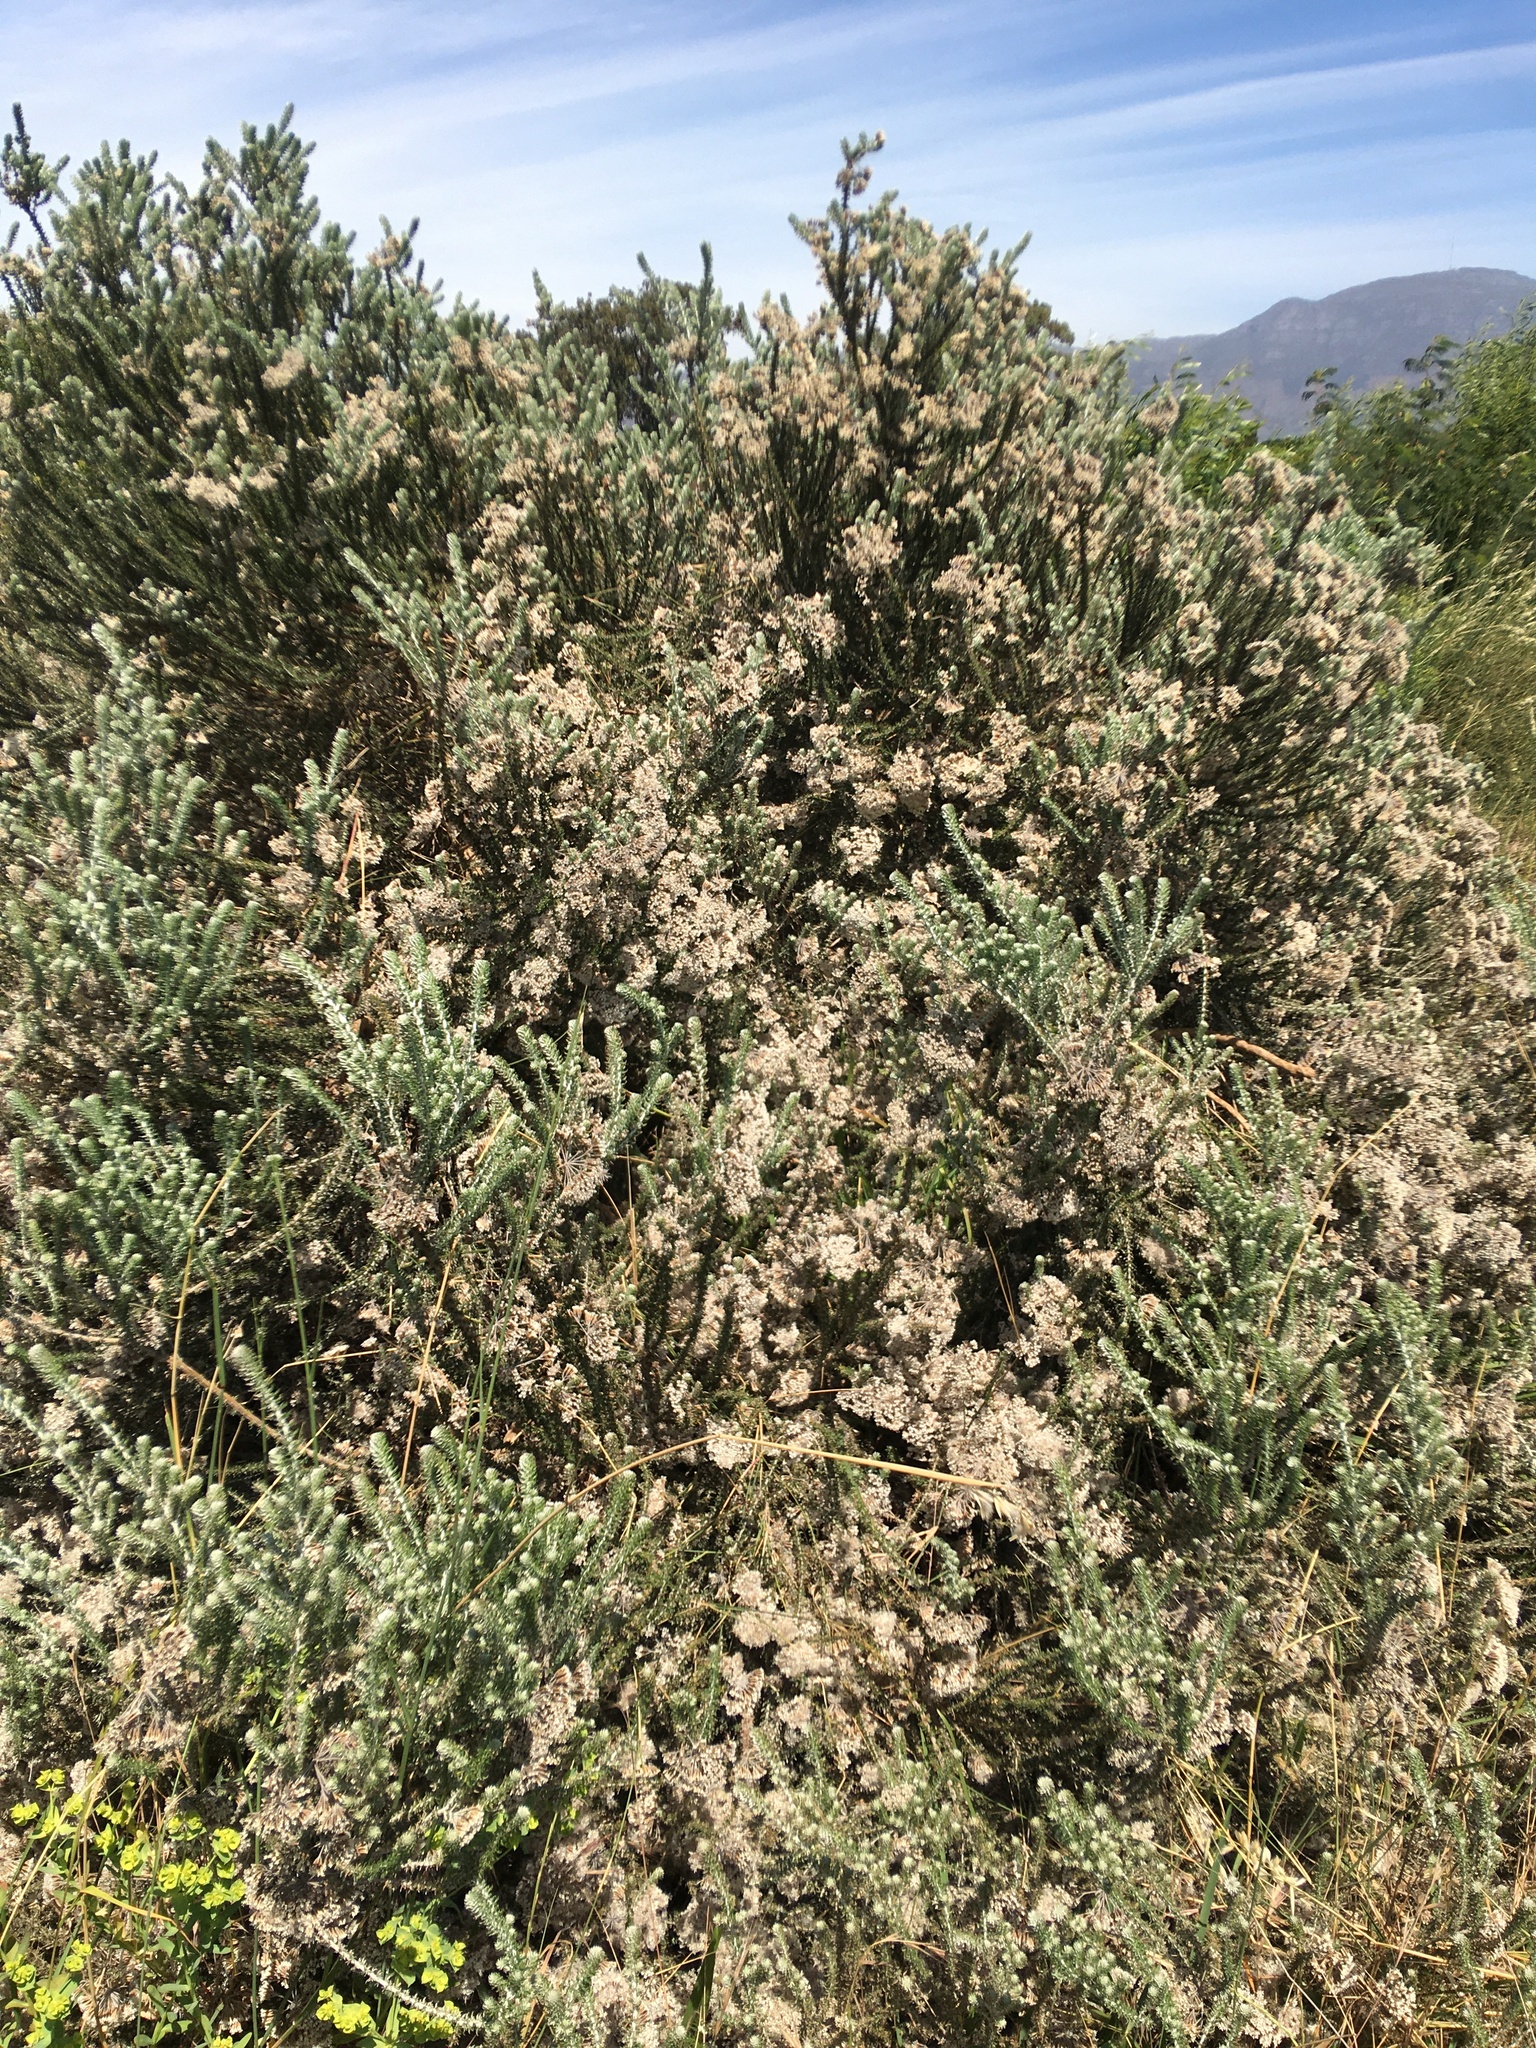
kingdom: Plantae
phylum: Tracheophyta
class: Magnoliopsida
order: Asterales
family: Asteraceae
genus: Metalasia
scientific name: Metalasia muricata
